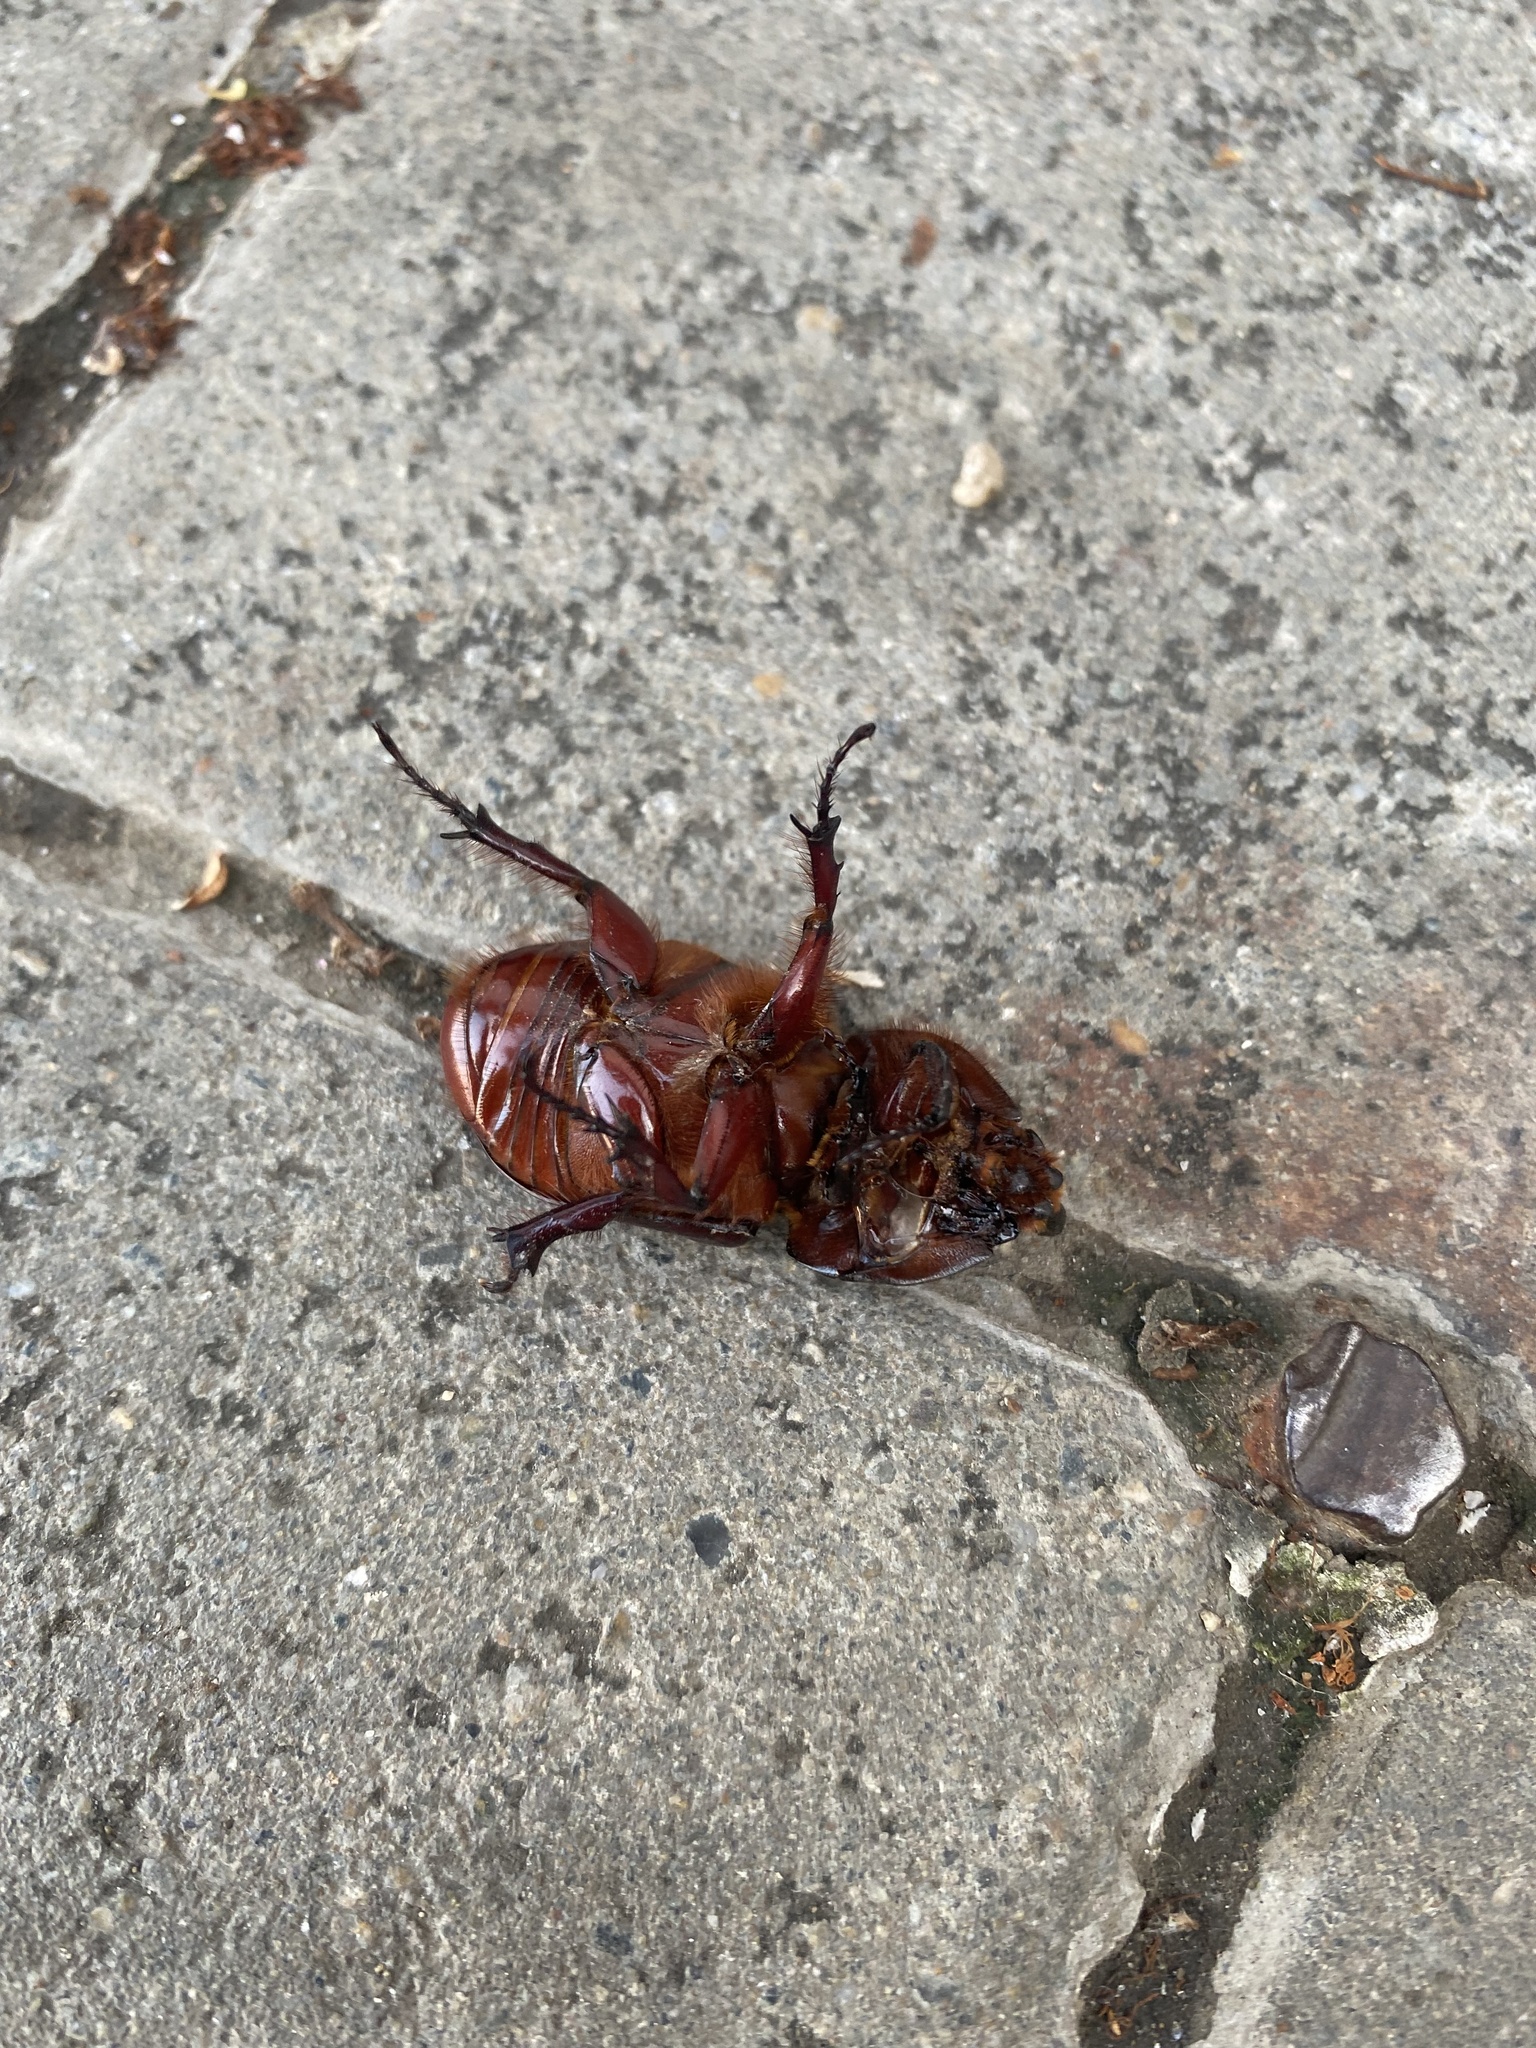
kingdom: Animalia
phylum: Arthropoda
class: Insecta
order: Coleoptera
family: Scarabaeidae
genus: Oryctes
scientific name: Oryctes nasicornis
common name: European rhinoceros beetle
